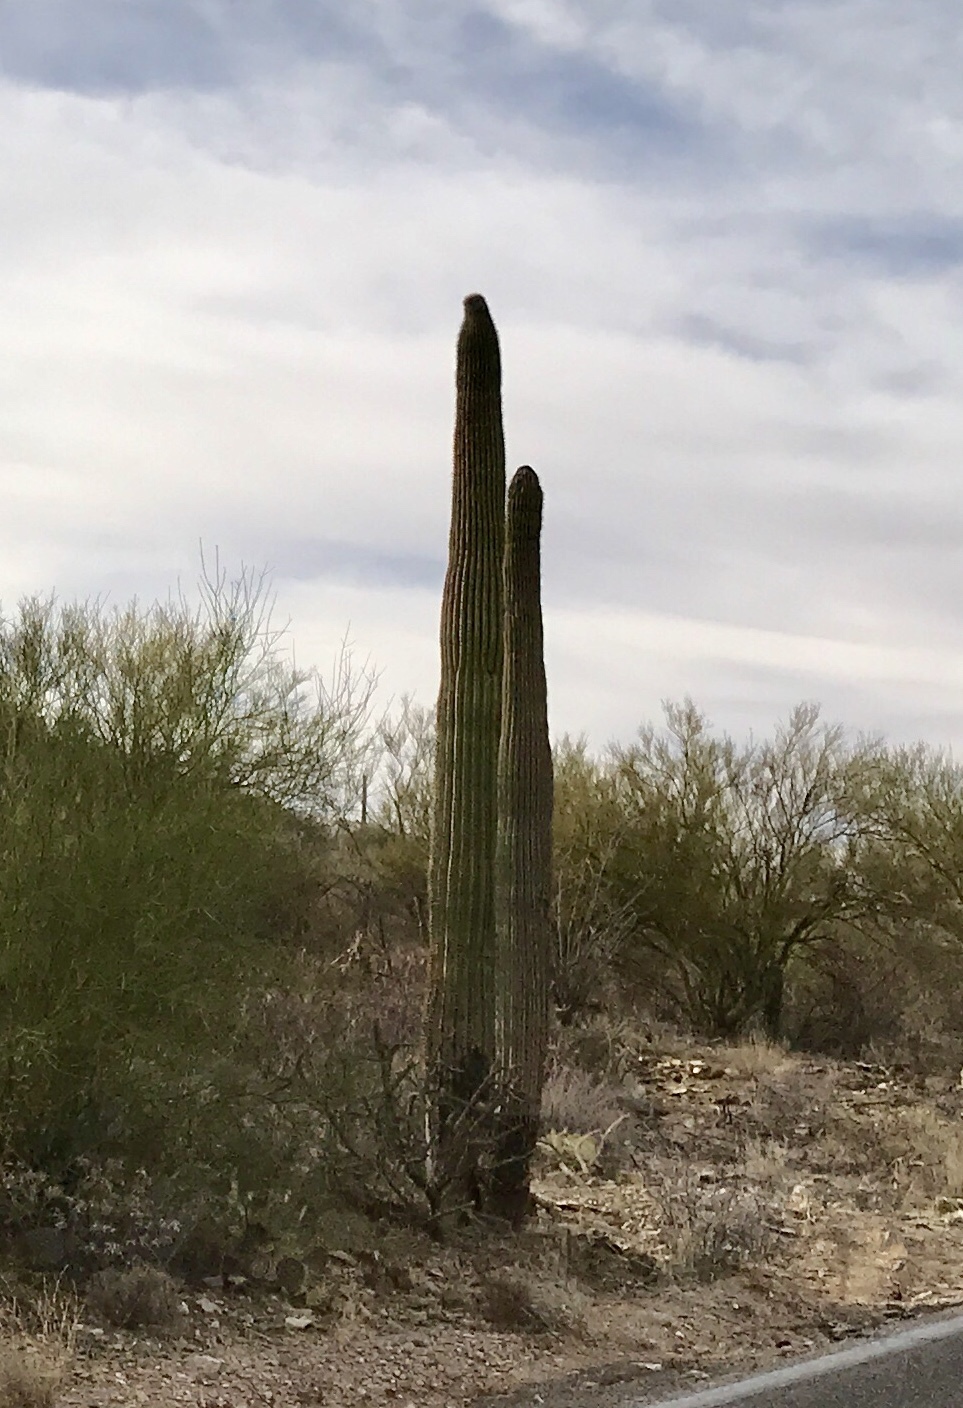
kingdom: Plantae
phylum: Tracheophyta
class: Magnoliopsida
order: Caryophyllales
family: Cactaceae
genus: Carnegiea
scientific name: Carnegiea gigantea
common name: Saguaro
